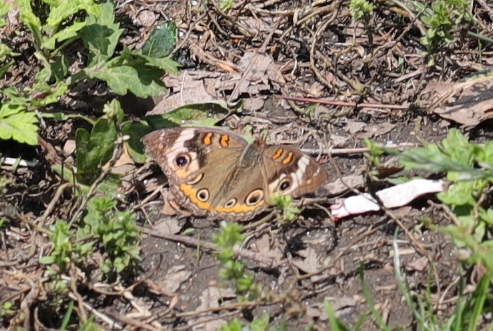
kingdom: Animalia
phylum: Arthropoda
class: Insecta
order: Lepidoptera
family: Nymphalidae
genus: Junonia
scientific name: Junonia coenia
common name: Common buckeye
